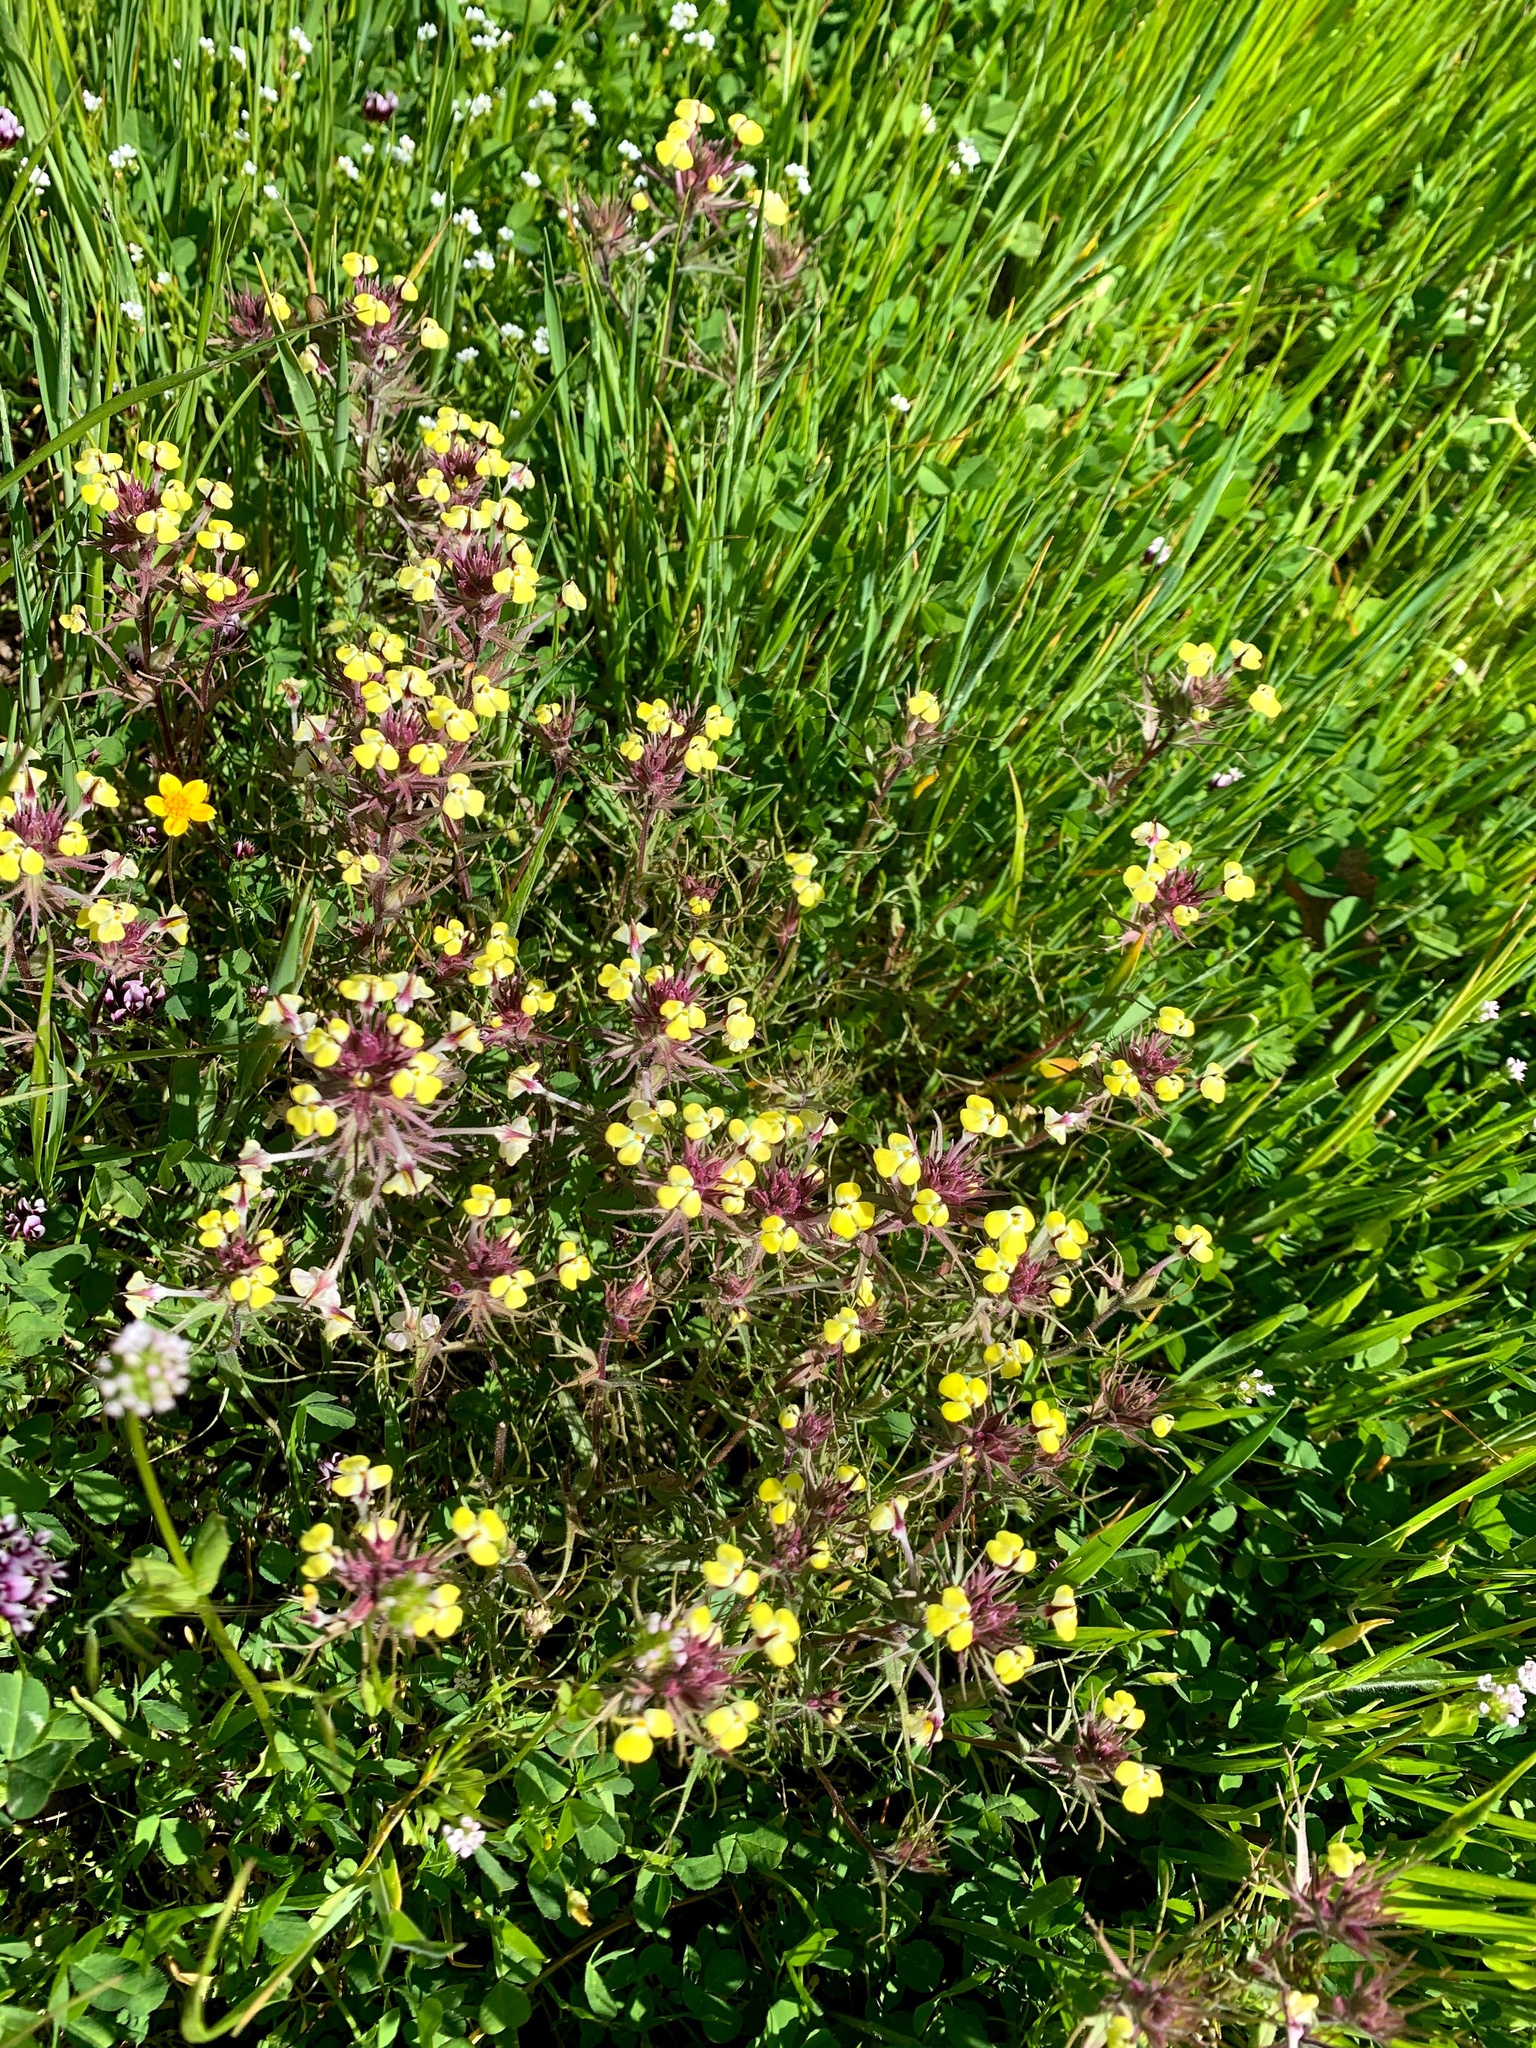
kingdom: Plantae
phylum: Tracheophyta
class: Magnoliopsida
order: Lamiales
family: Orobanchaceae
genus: Triphysaria
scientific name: Triphysaria eriantha
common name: Johnny-tuck
